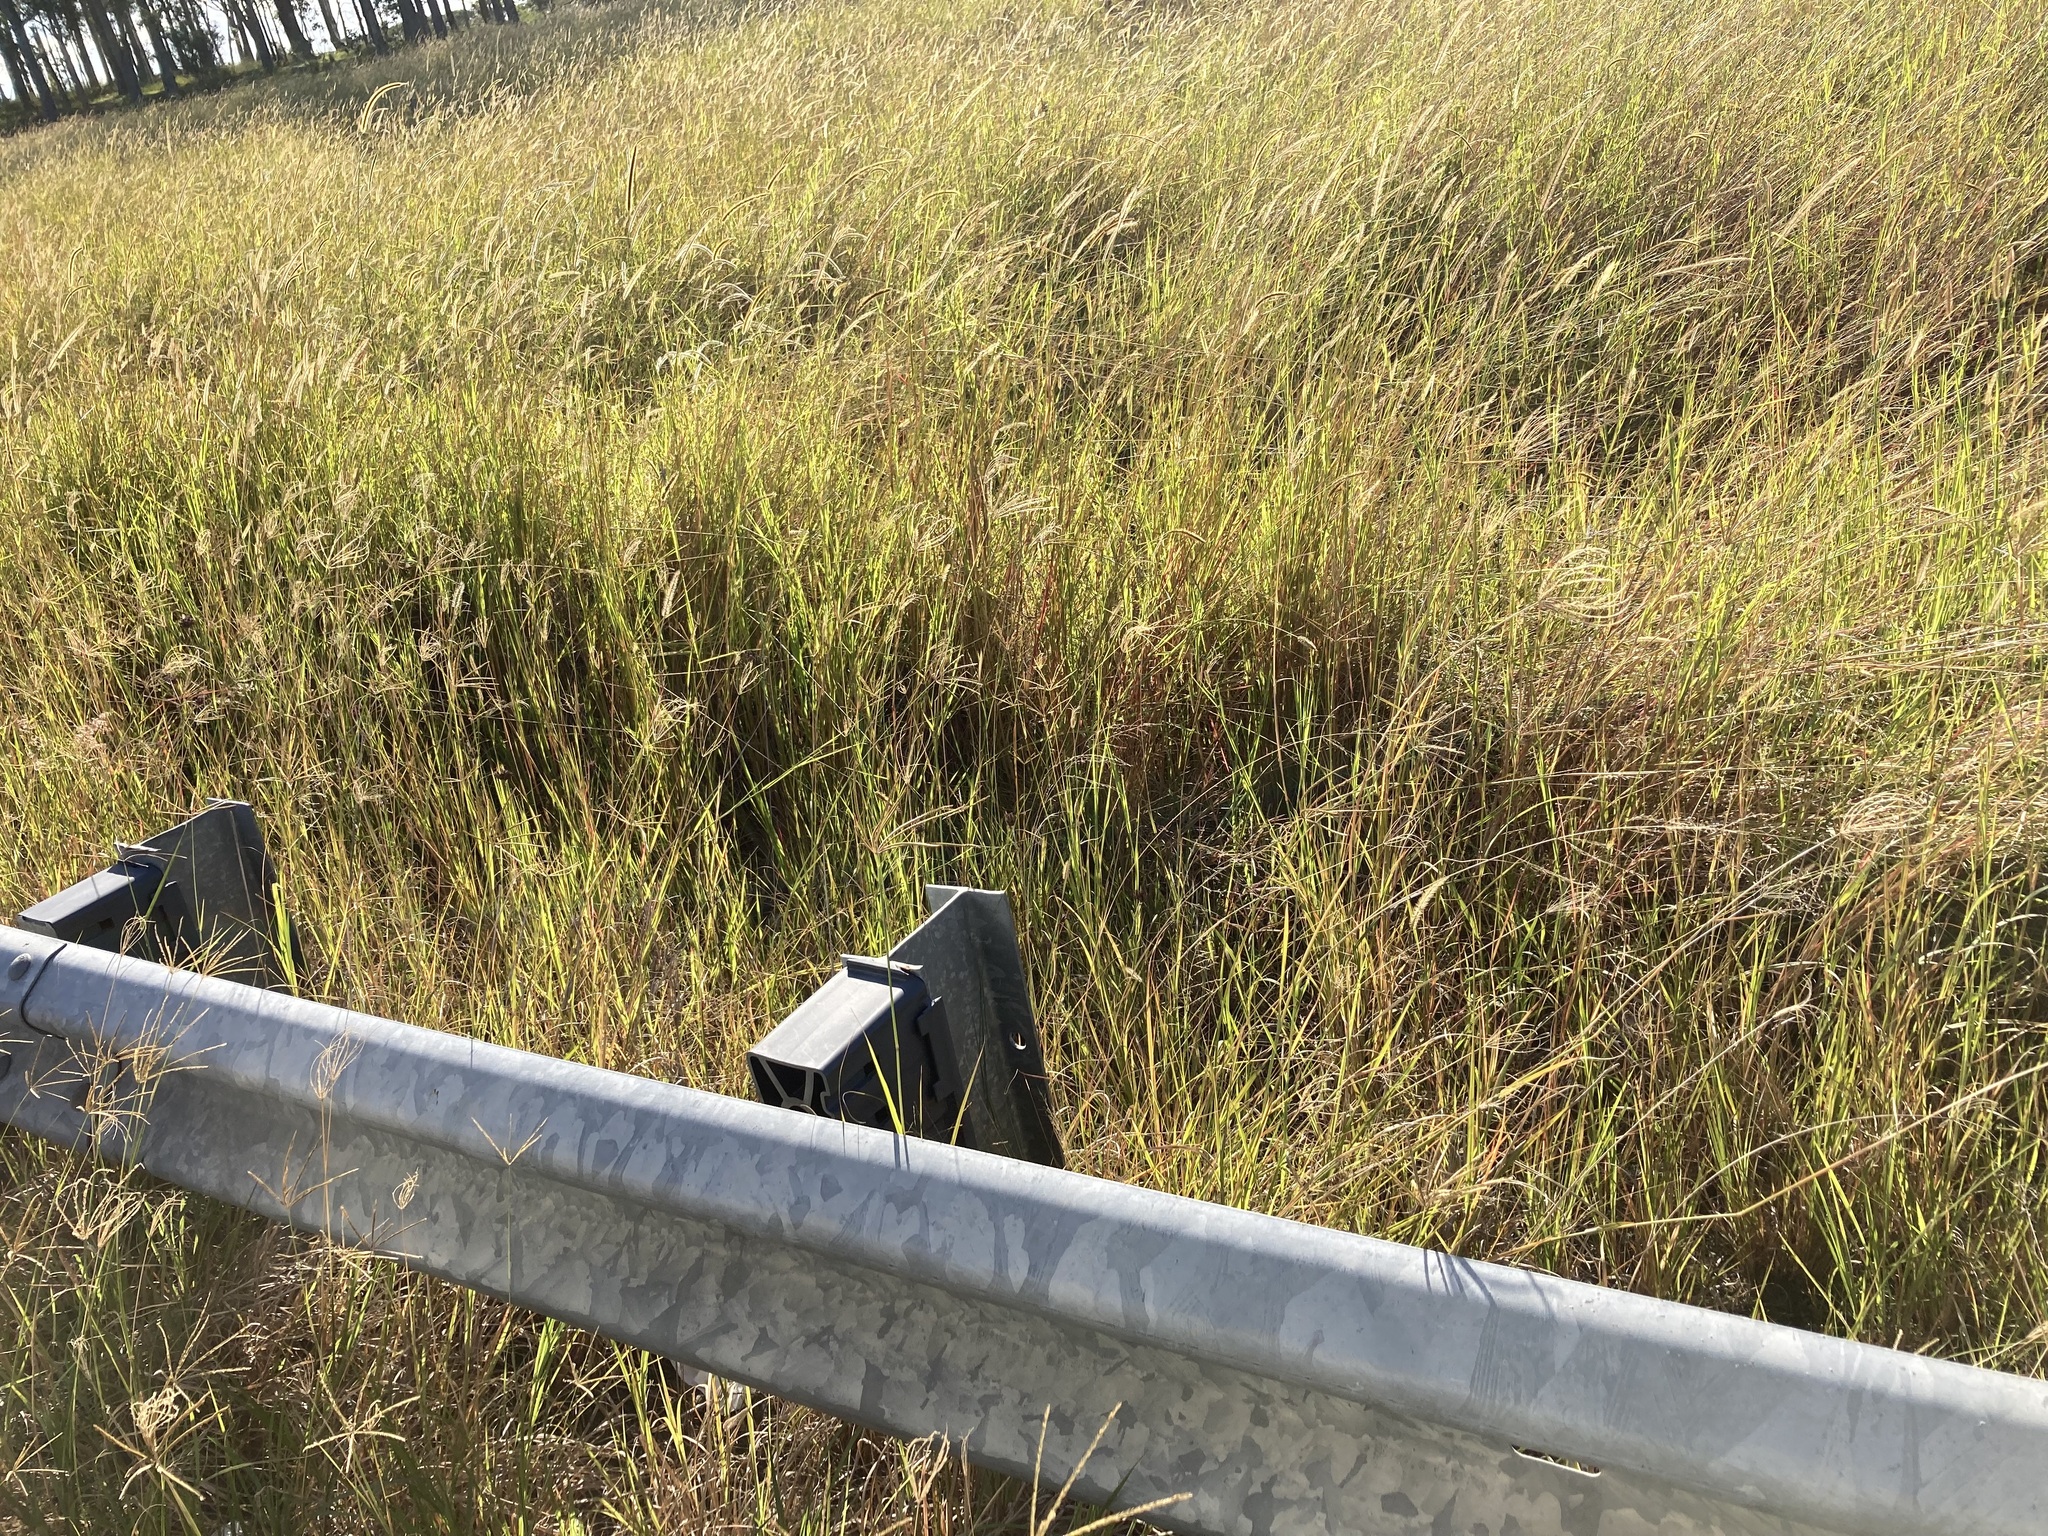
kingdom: Plantae
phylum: Tracheophyta
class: Liliopsida
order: Poales
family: Poaceae
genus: Chloris
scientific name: Chloris gayana
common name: Rhodes grass
